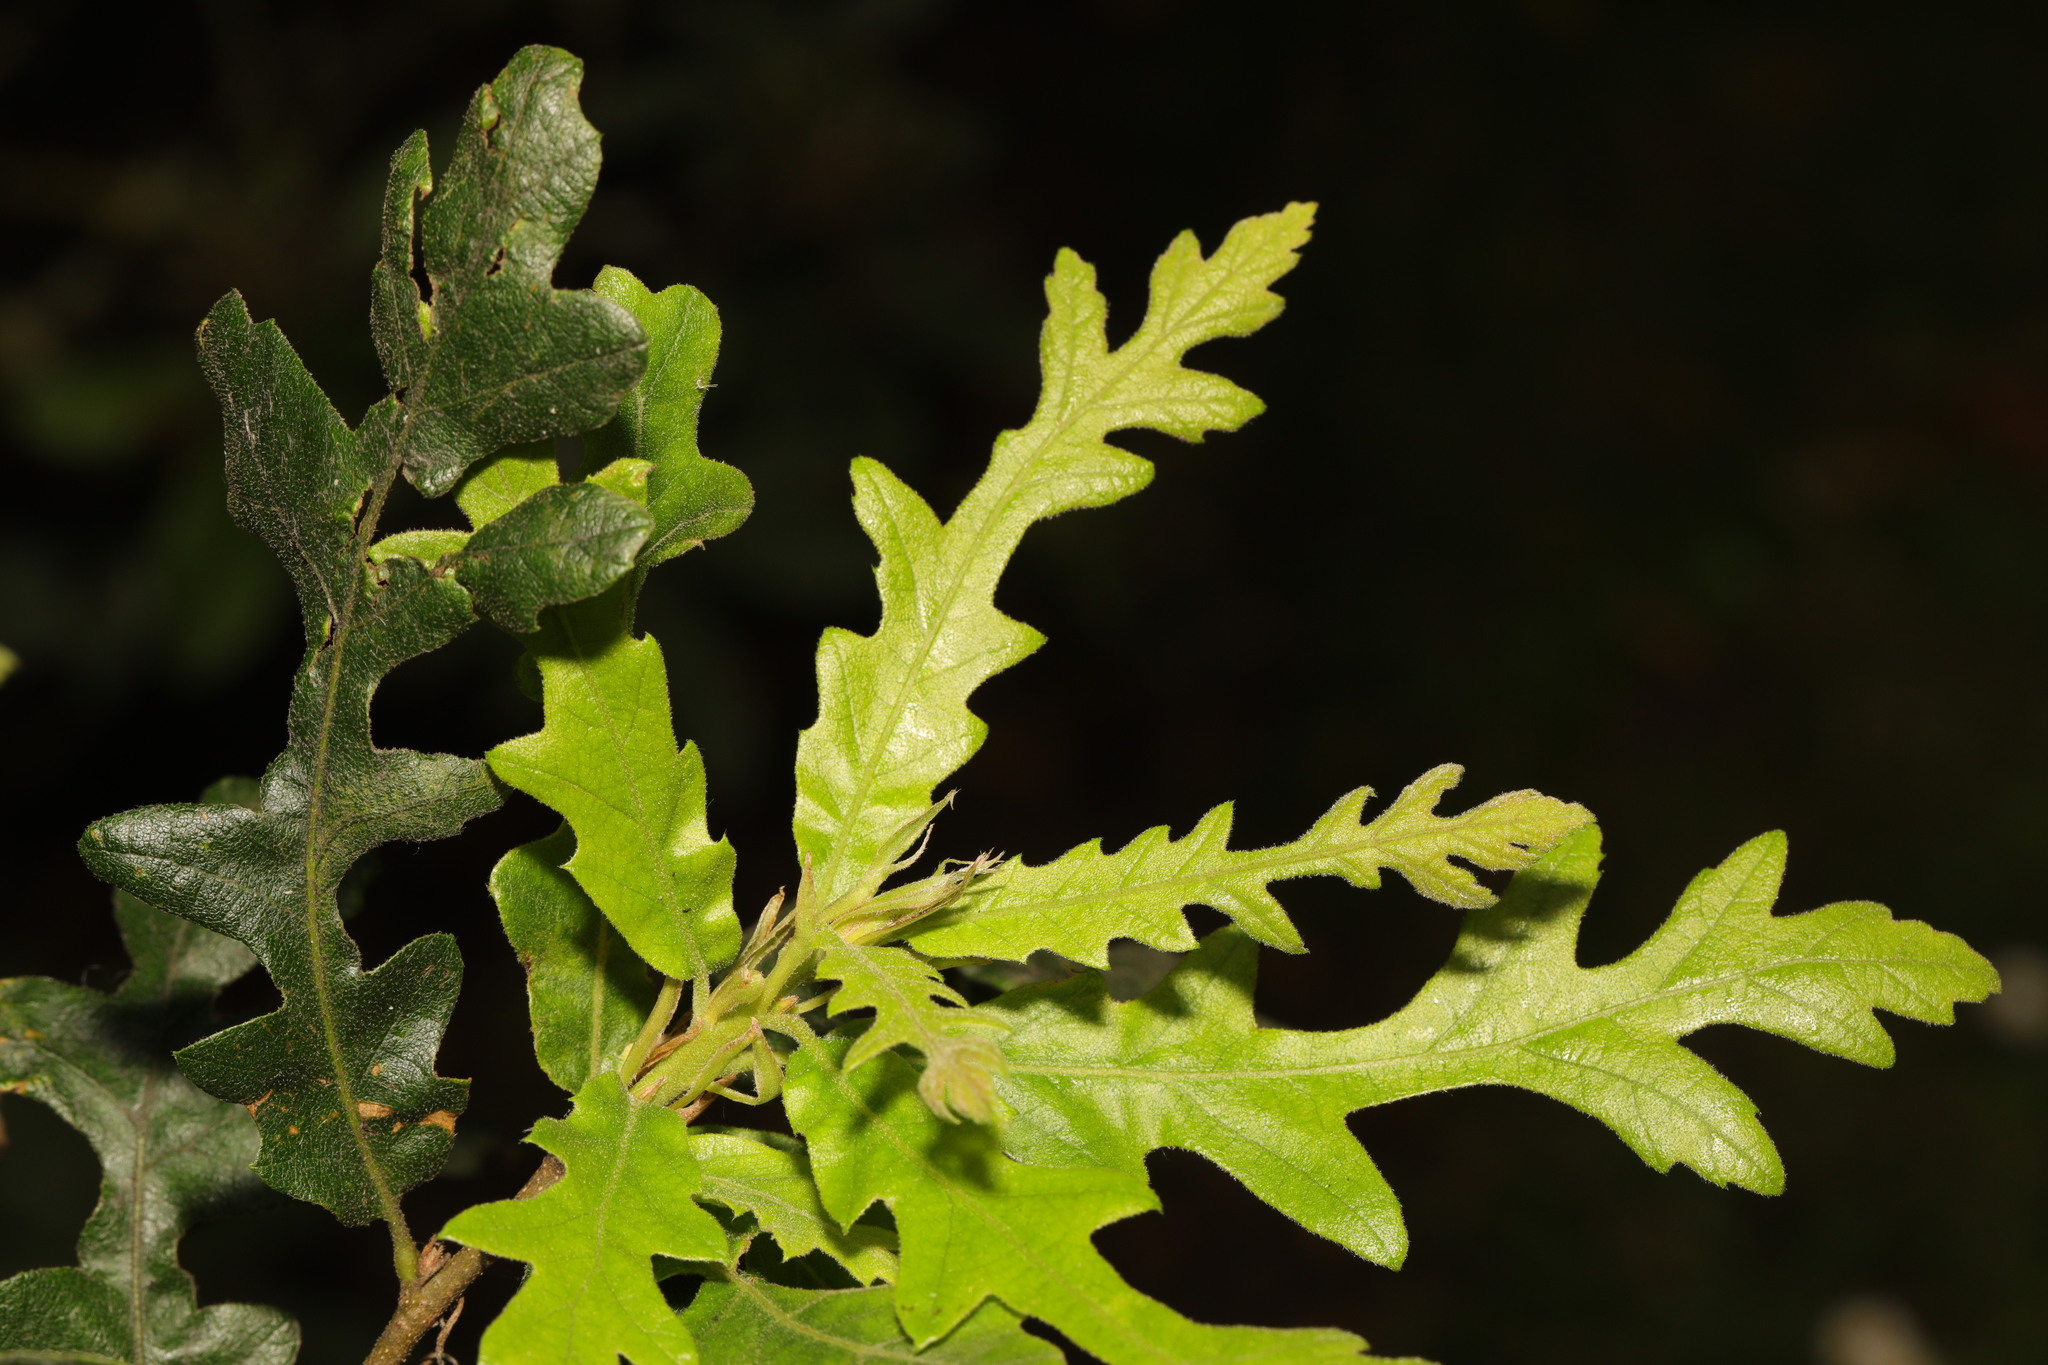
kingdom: Plantae
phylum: Tracheophyta
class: Magnoliopsida
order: Fagales
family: Fagaceae
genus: Quercus
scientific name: Quercus cerris
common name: Turkey oak
